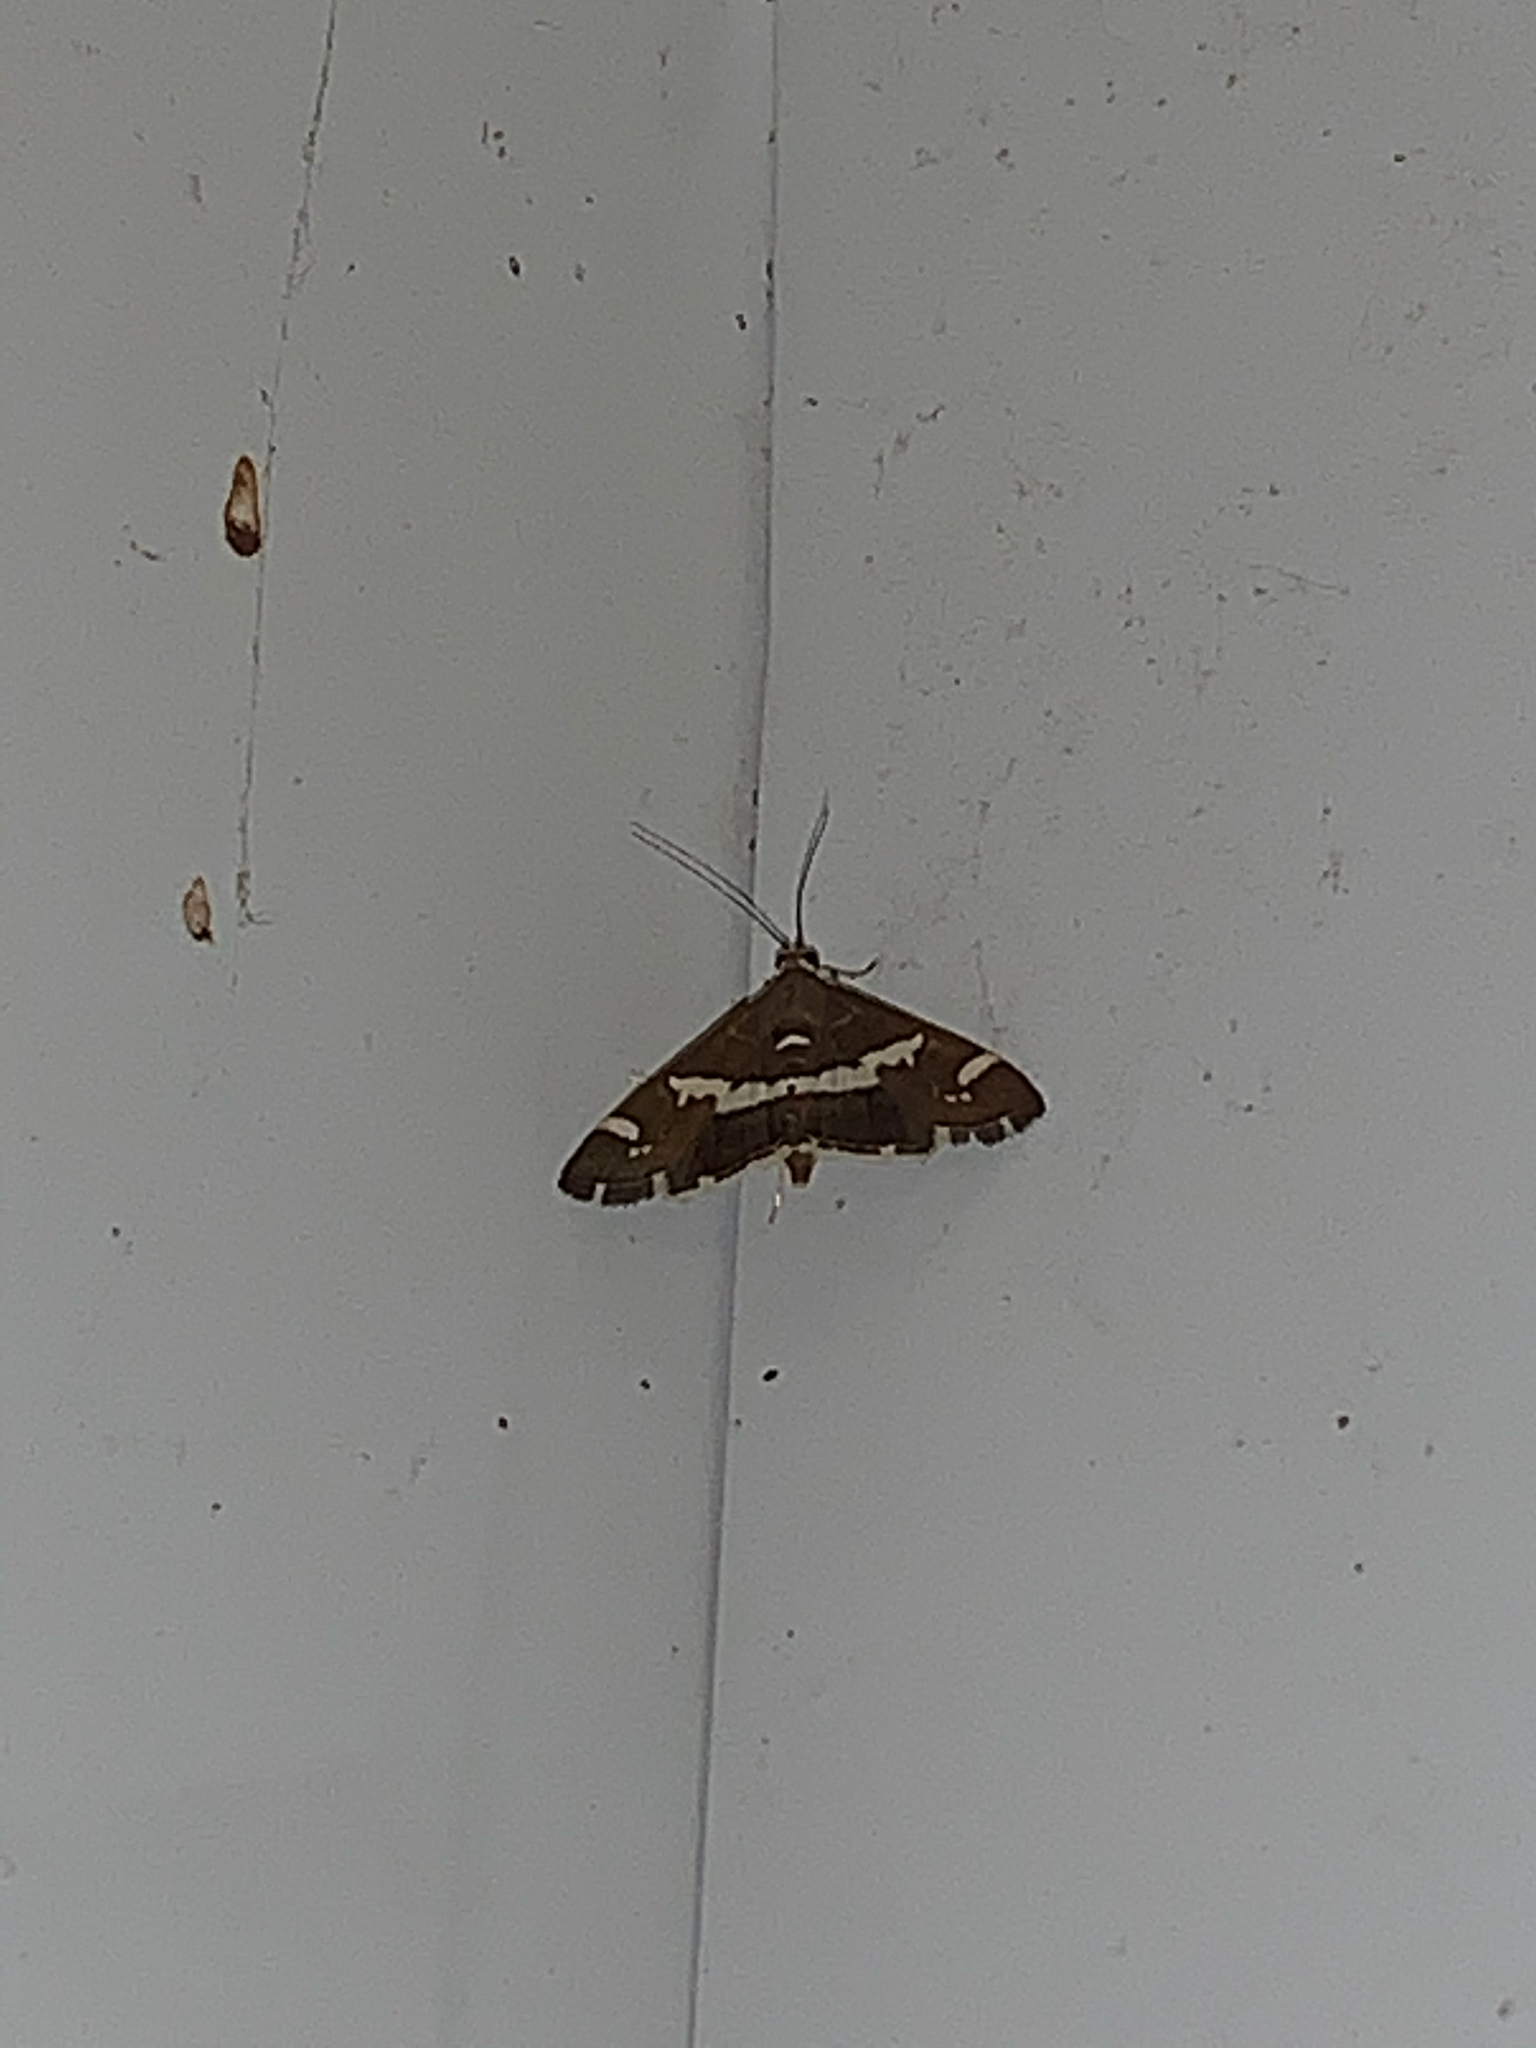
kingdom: Animalia
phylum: Arthropoda
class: Insecta
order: Lepidoptera
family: Crambidae
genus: Spoladea
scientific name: Spoladea recurvalis
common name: Beet webworm moth
